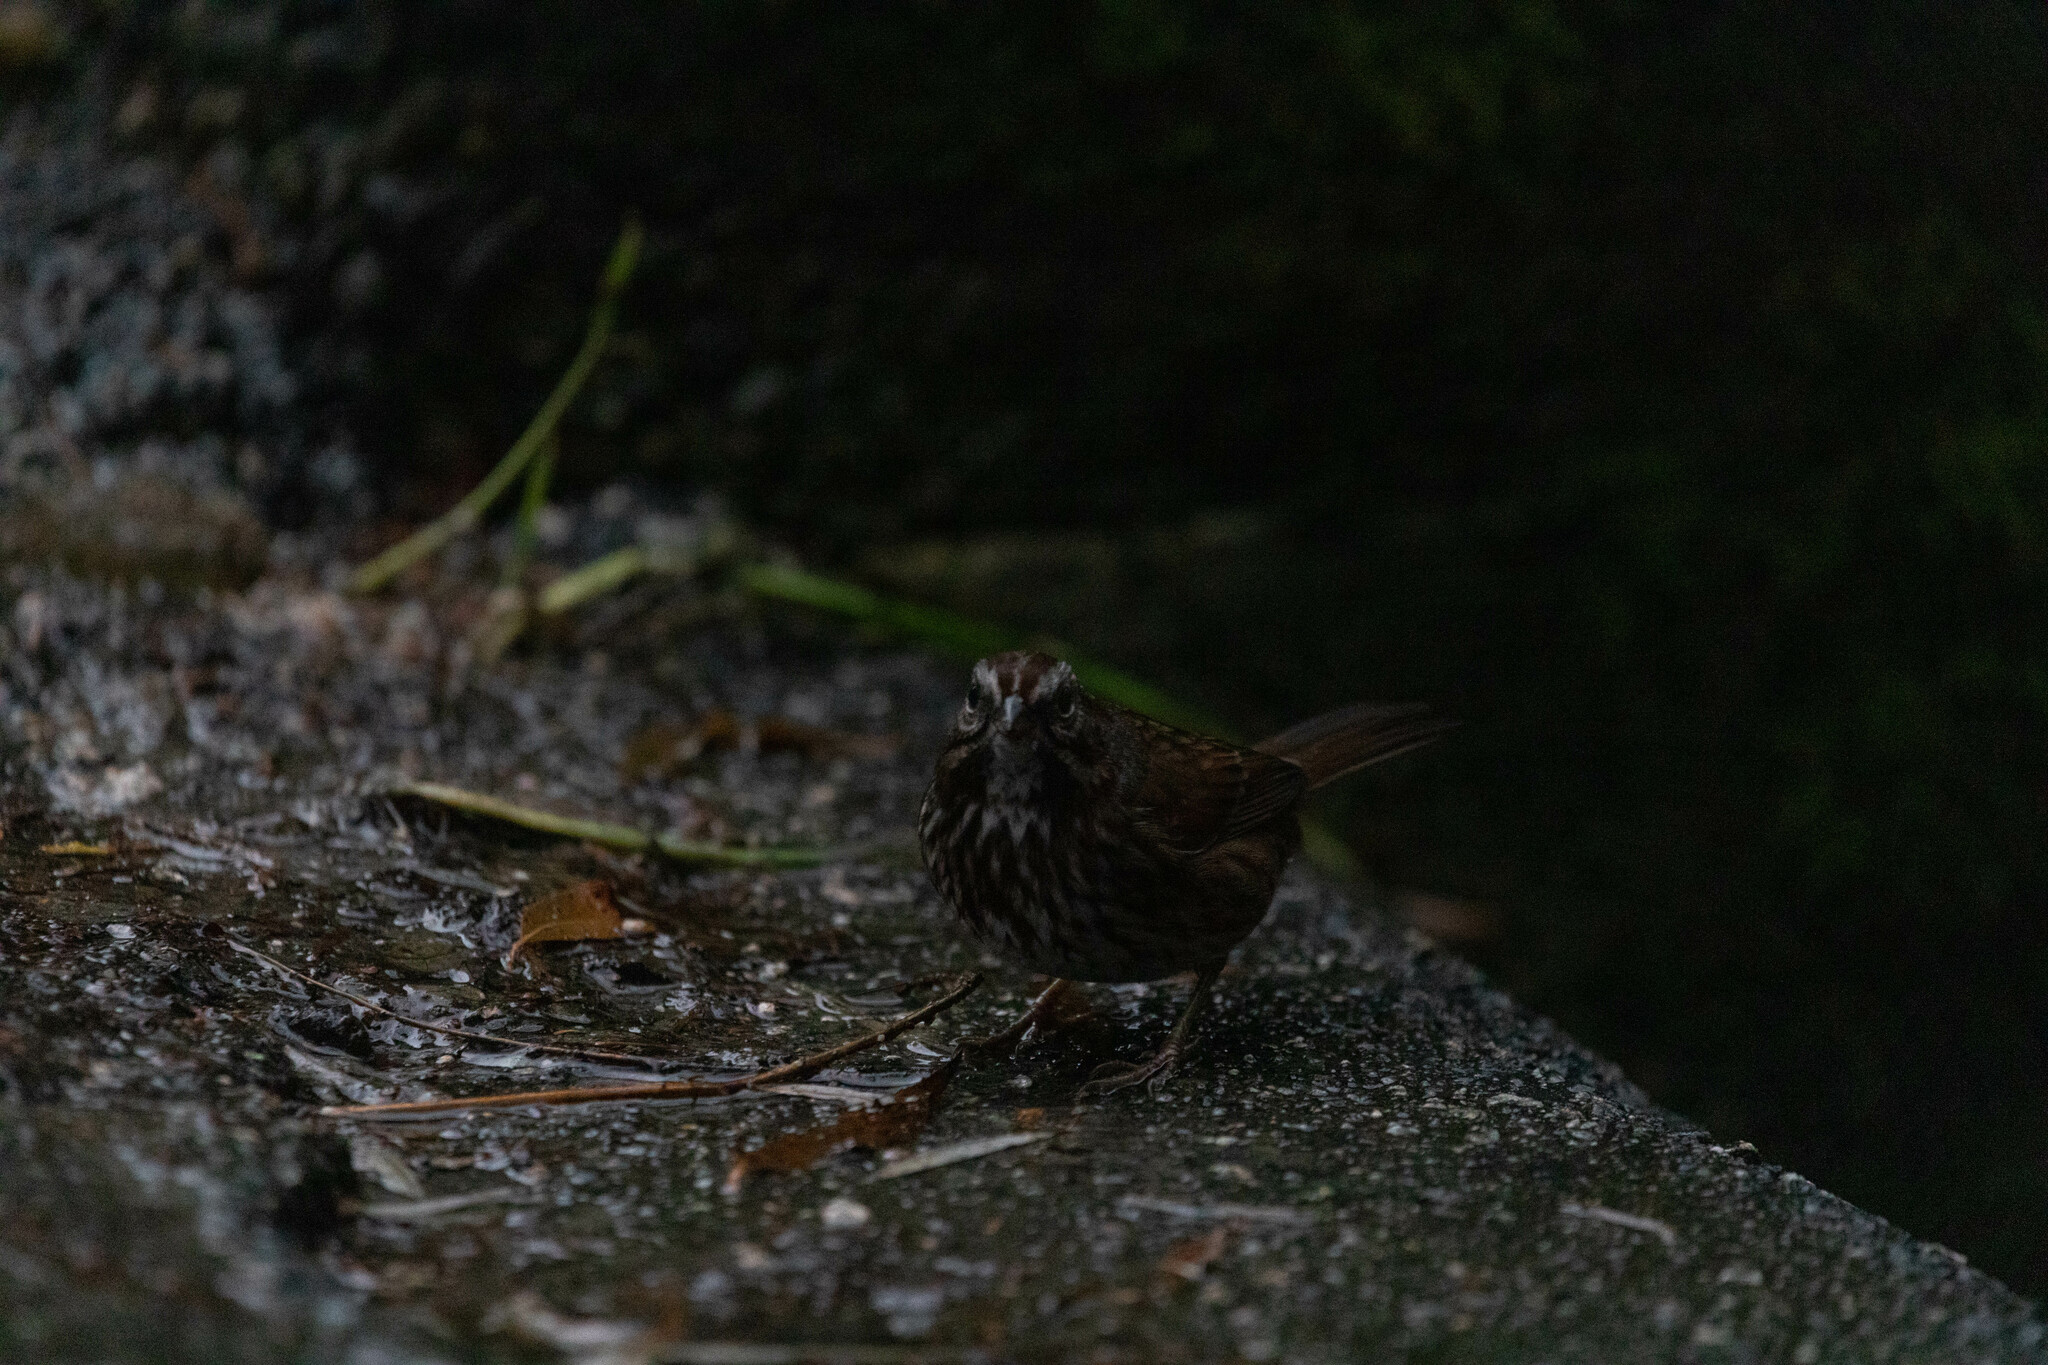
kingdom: Animalia
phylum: Chordata
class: Aves
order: Passeriformes
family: Passerellidae
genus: Melospiza
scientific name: Melospiza melodia
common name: Song sparrow
